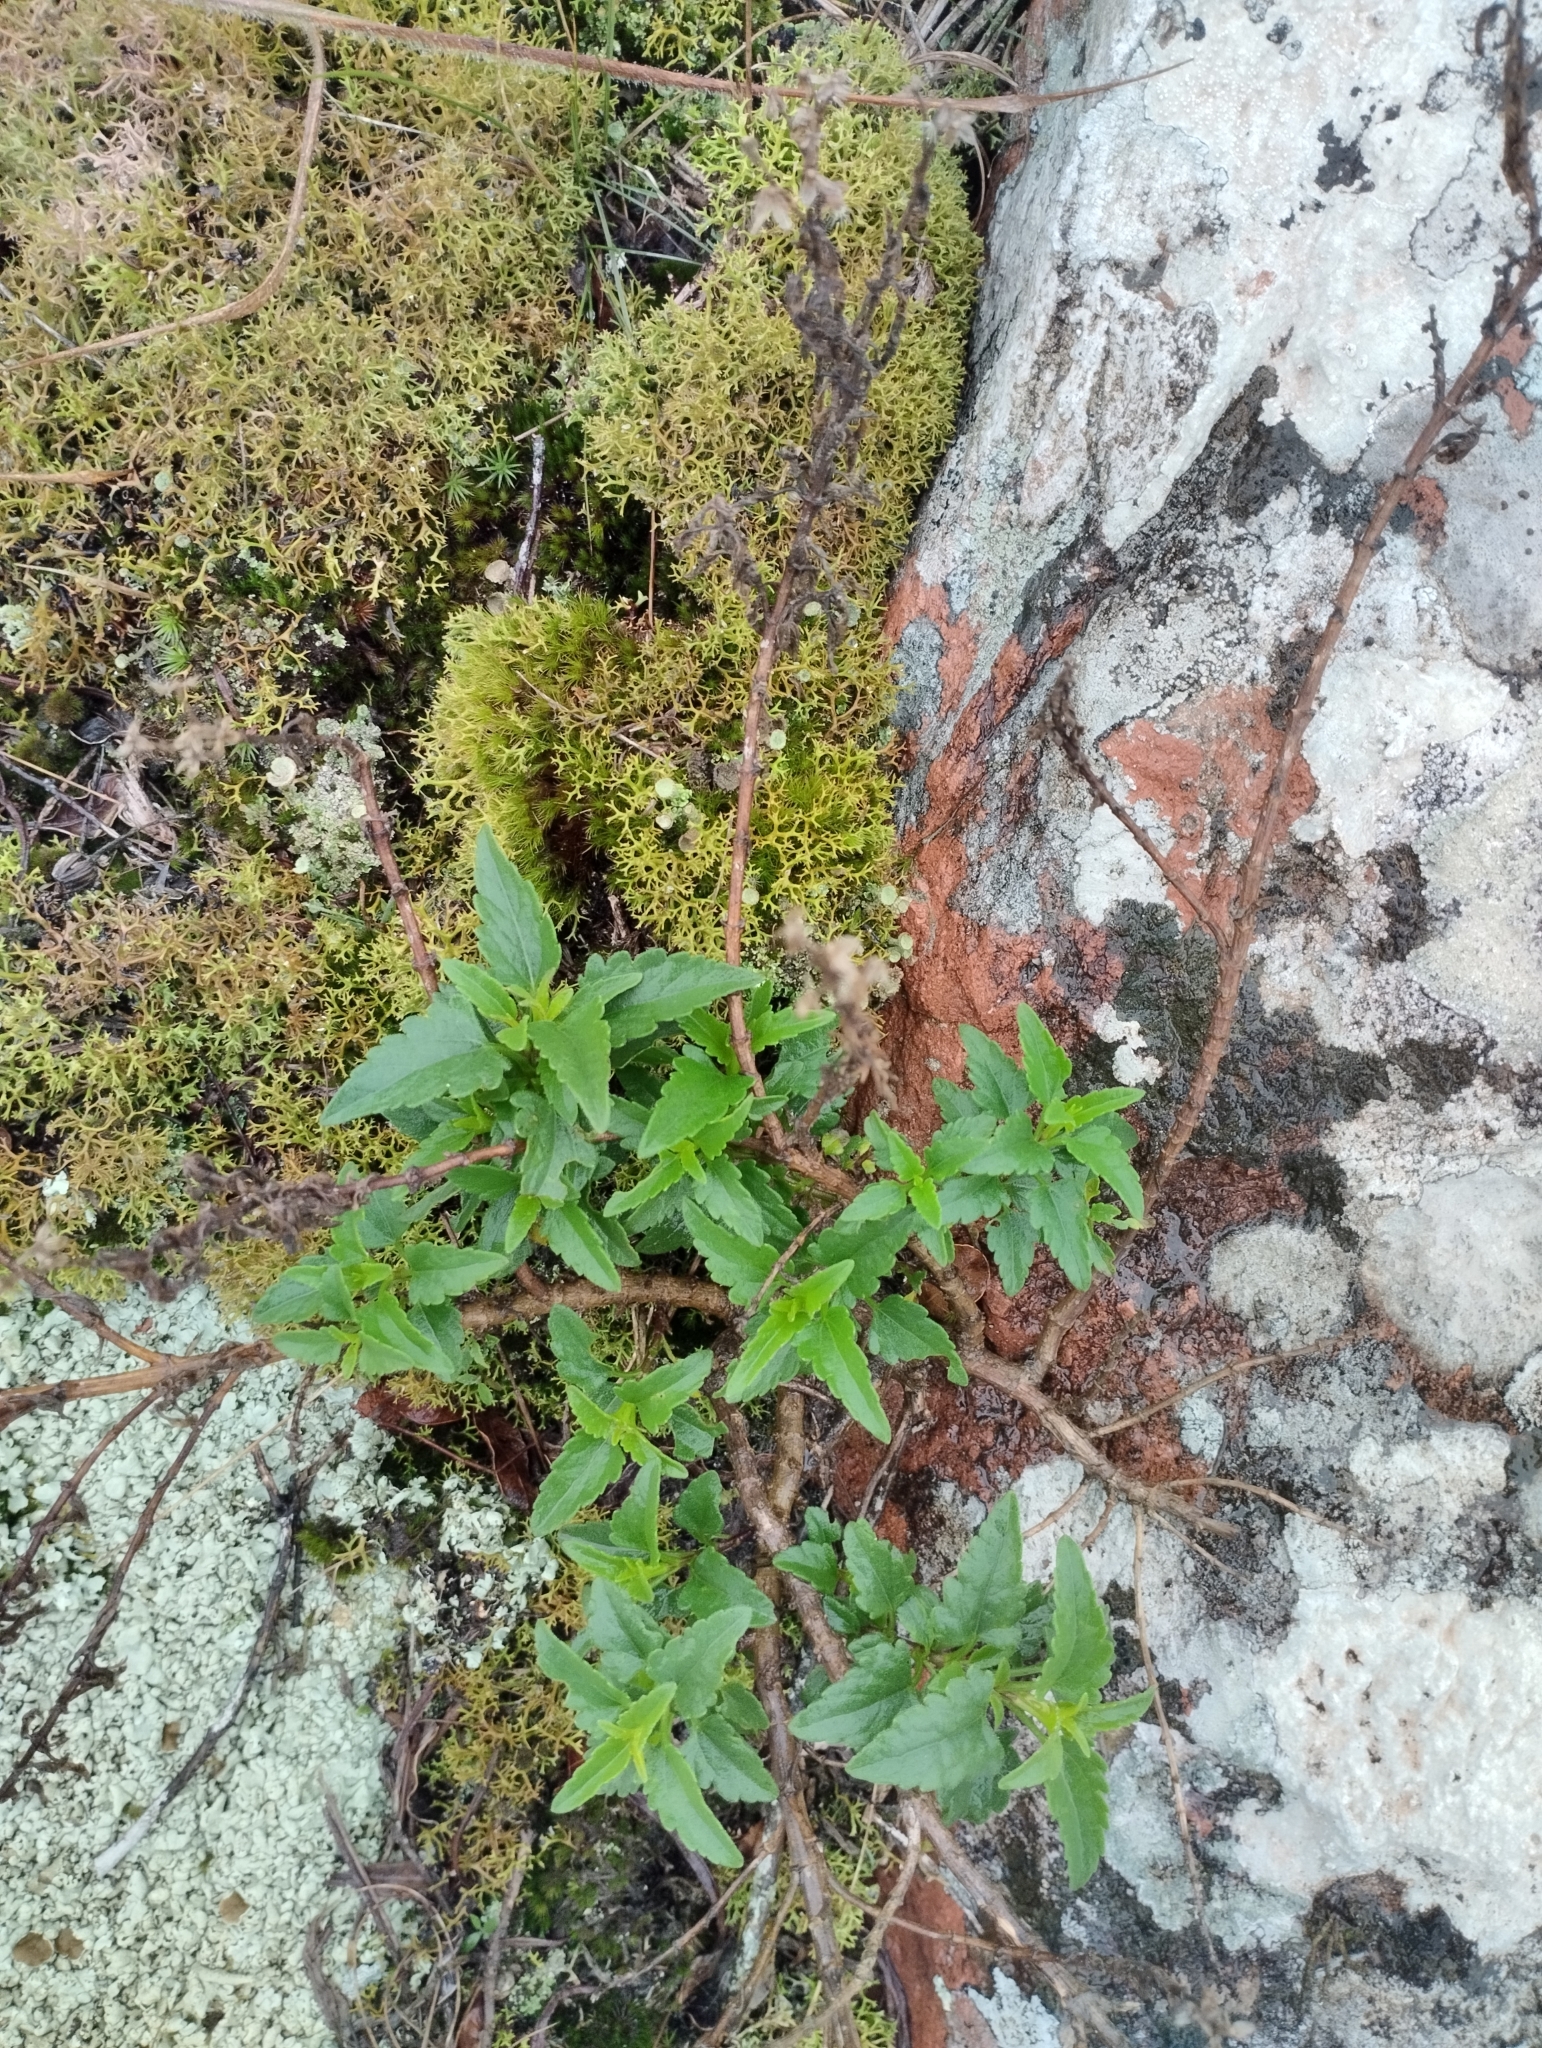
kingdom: Plantae
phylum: Tracheophyta
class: Magnoliopsida
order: Asterales
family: Asteraceae
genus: Hatschbachiella
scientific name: Hatschbachiella tweedieana
